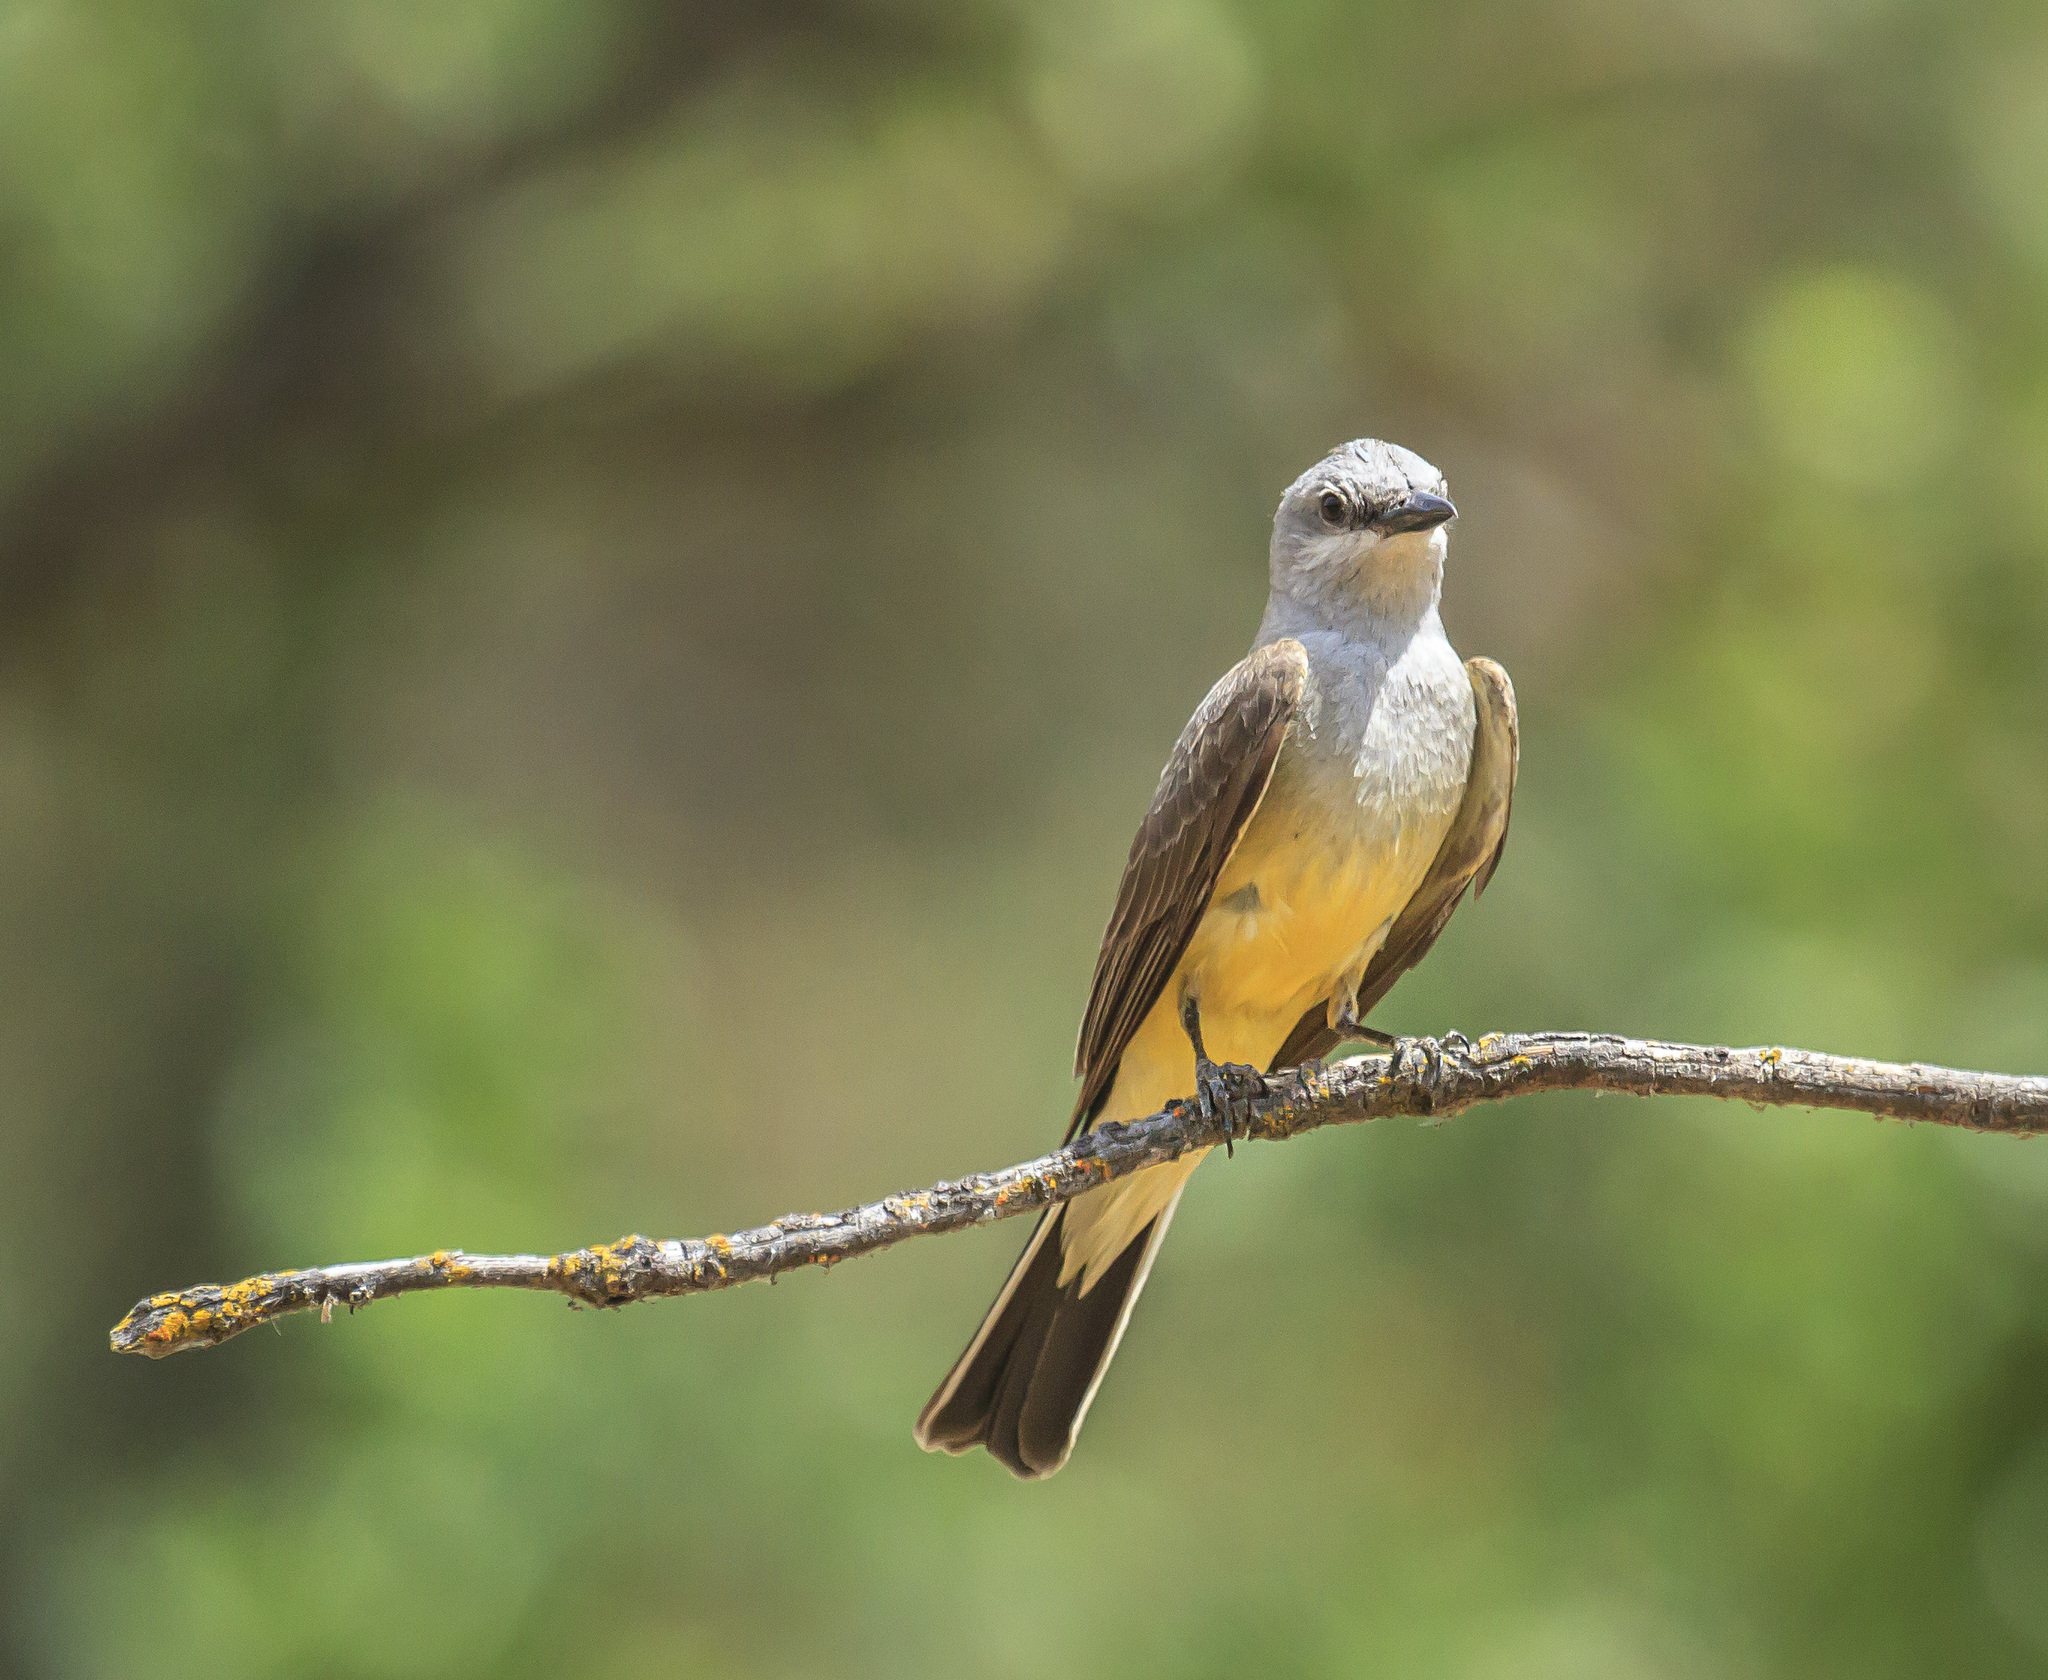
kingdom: Animalia
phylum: Chordata
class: Aves
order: Passeriformes
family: Tyrannidae
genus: Myiarchus
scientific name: Myiarchus cinerascens
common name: Ash-throated flycatcher
